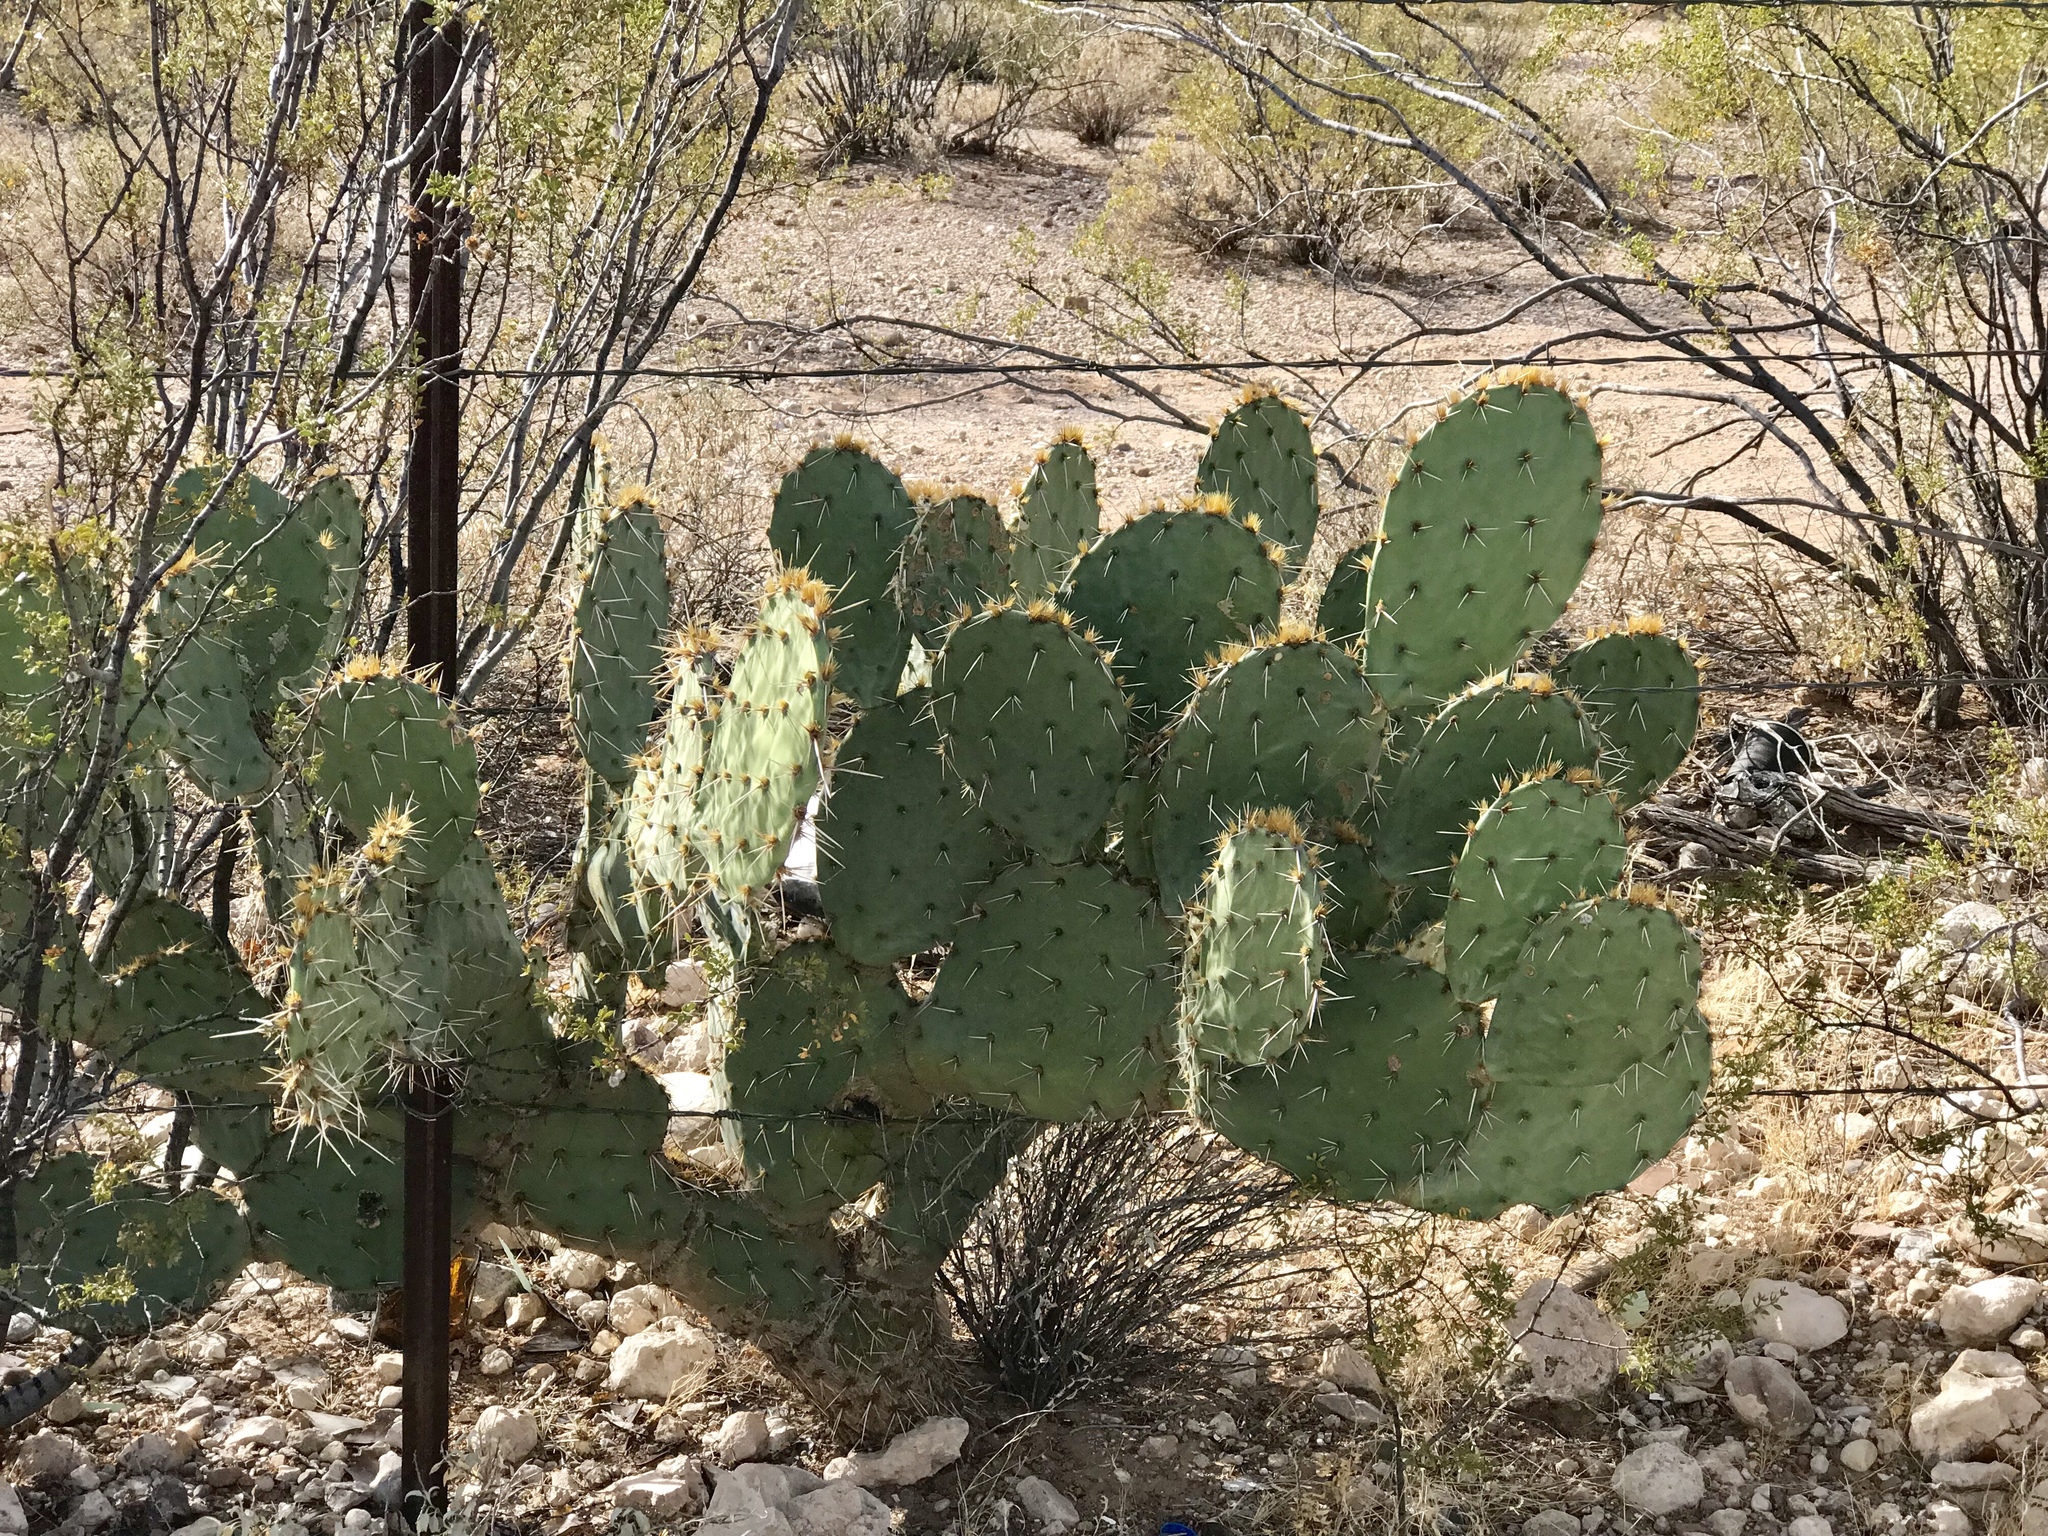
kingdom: Plantae
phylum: Tracheophyta
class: Magnoliopsida
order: Caryophyllales
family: Cactaceae
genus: Opuntia
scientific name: Opuntia engelmannii
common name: Cactus-apple
